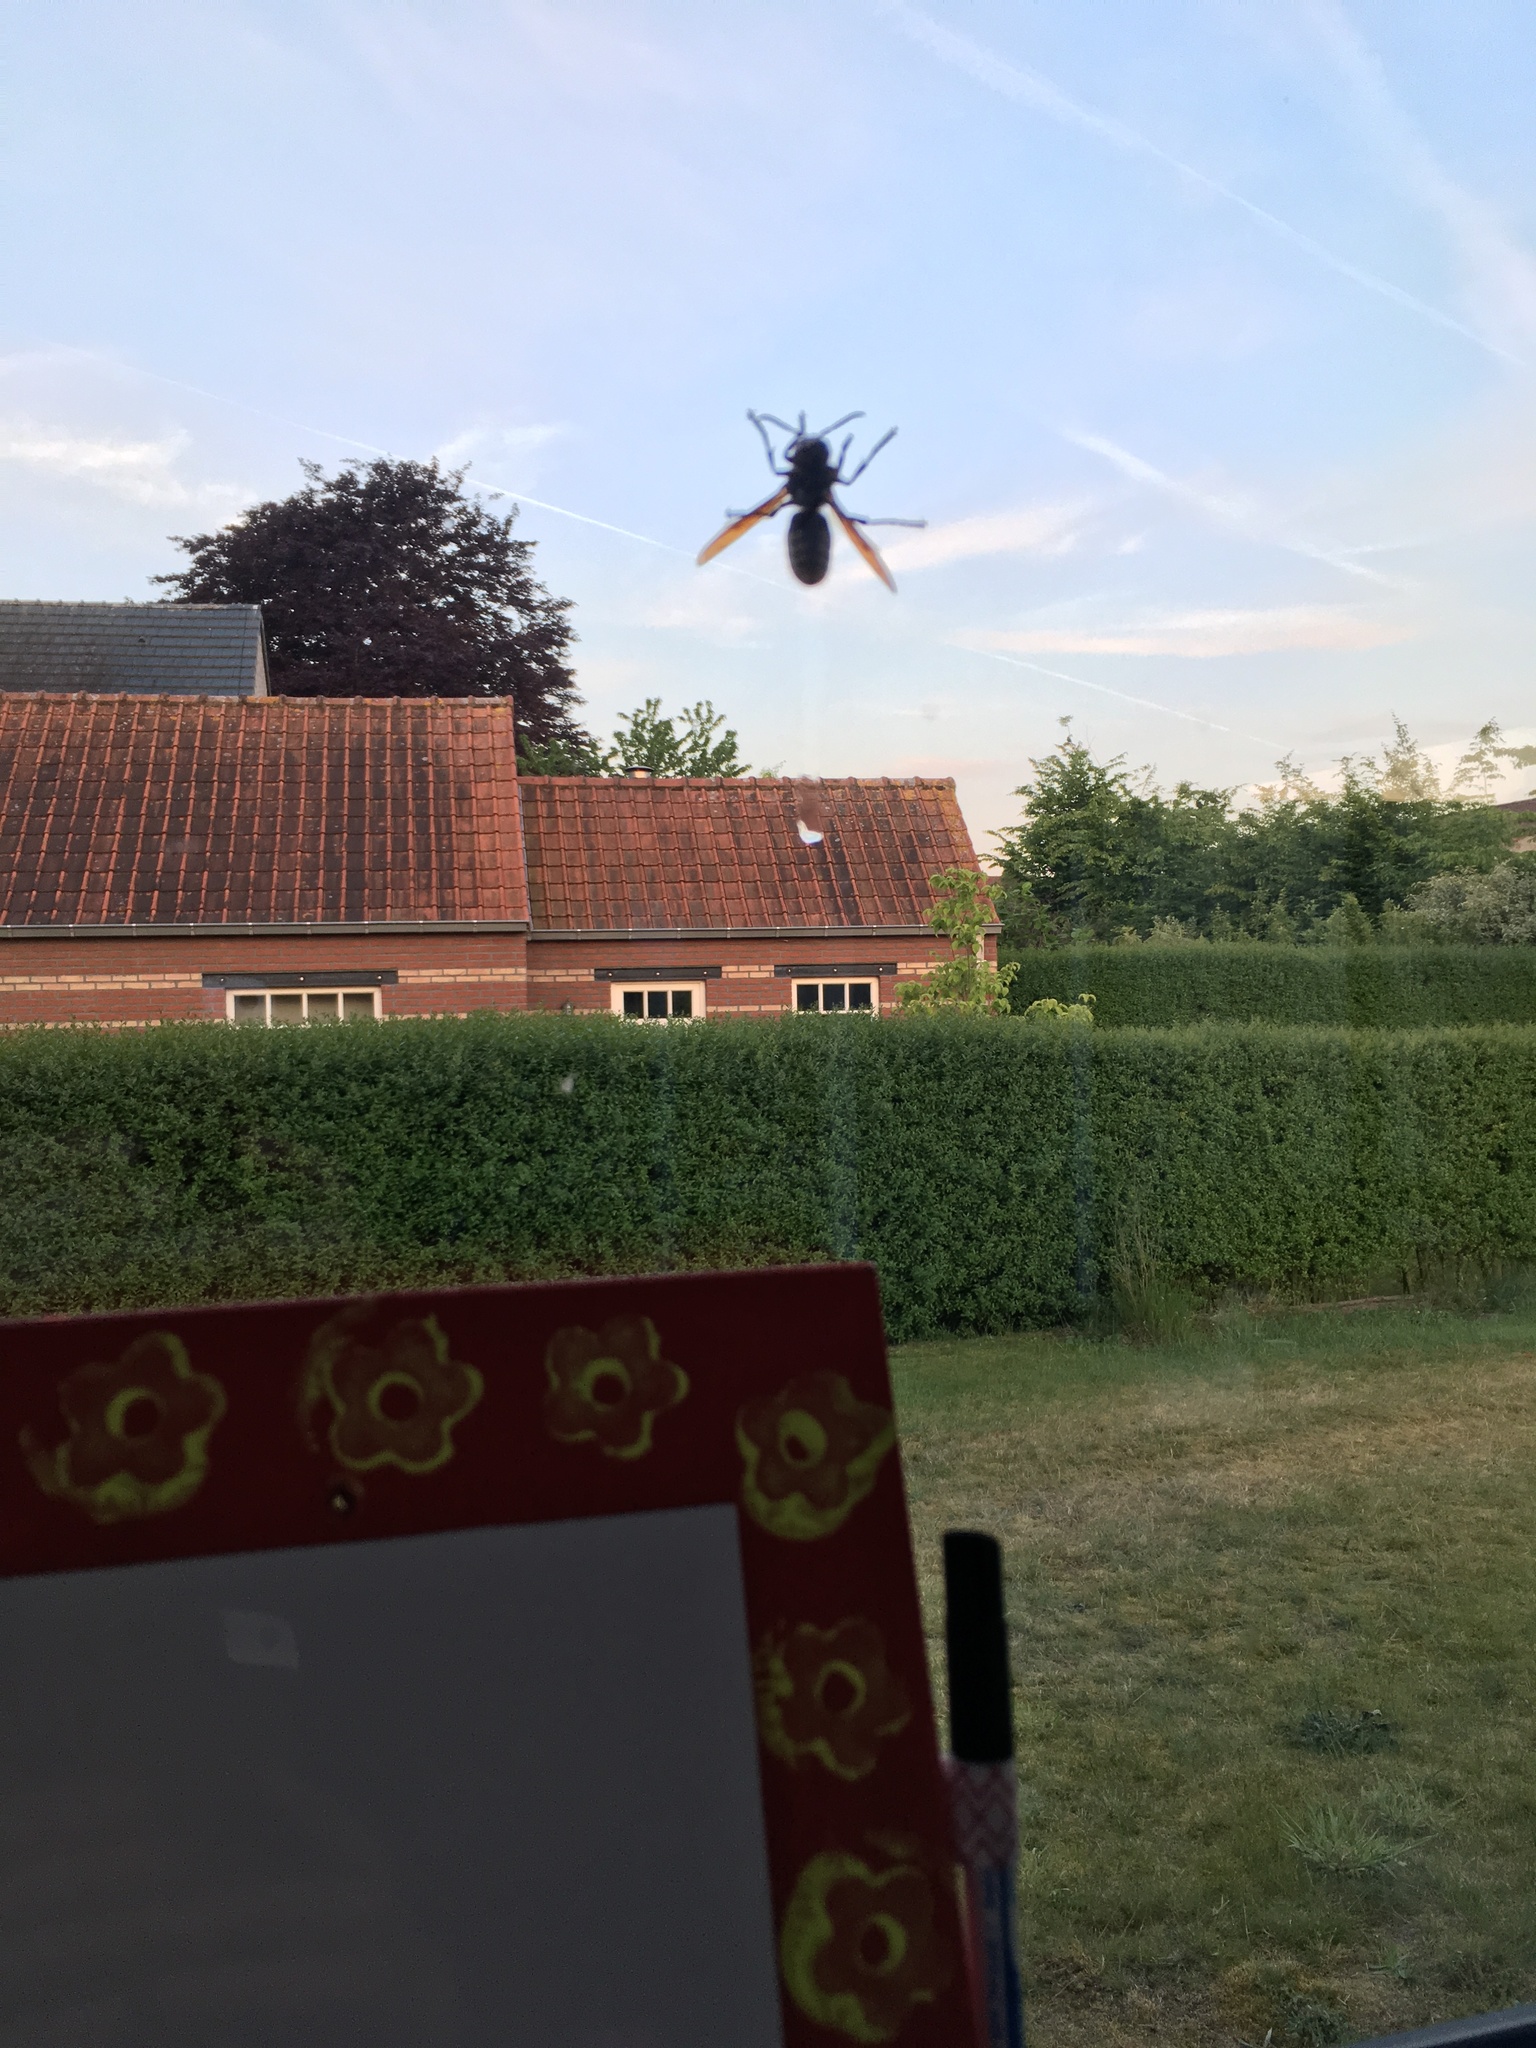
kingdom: Animalia
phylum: Arthropoda
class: Insecta
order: Hymenoptera
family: Vespidae
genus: Vespa
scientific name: Vespa crabro
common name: Hornet
